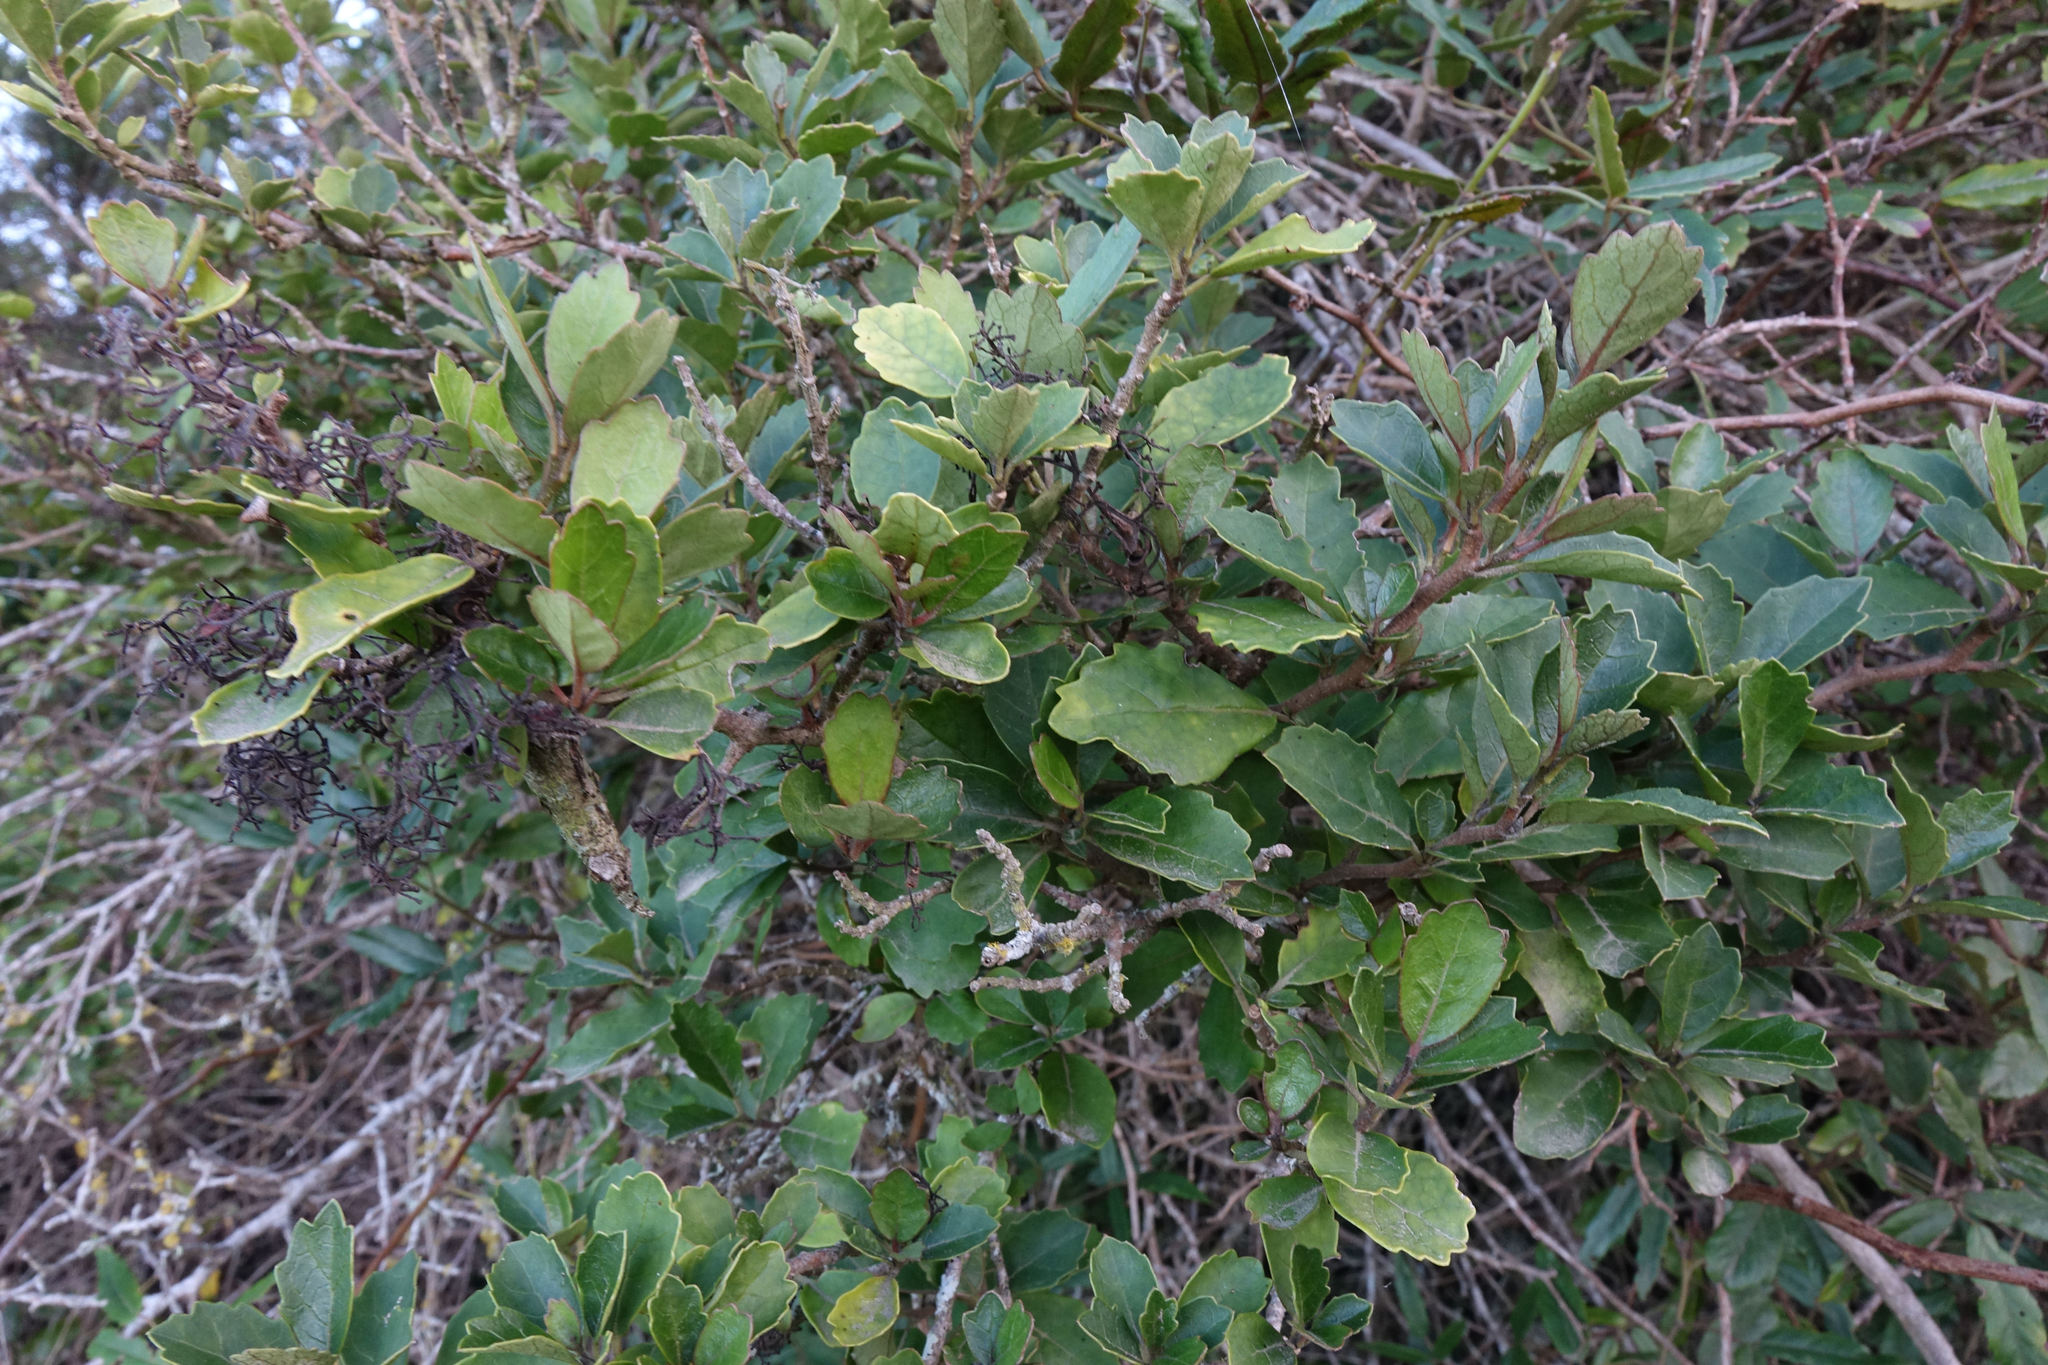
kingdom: Plantae
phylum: Tracheophyta
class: Magnoliopsida
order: Apiales
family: Pennantiaceae
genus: Pennantia
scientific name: Pennantia corymbosa
